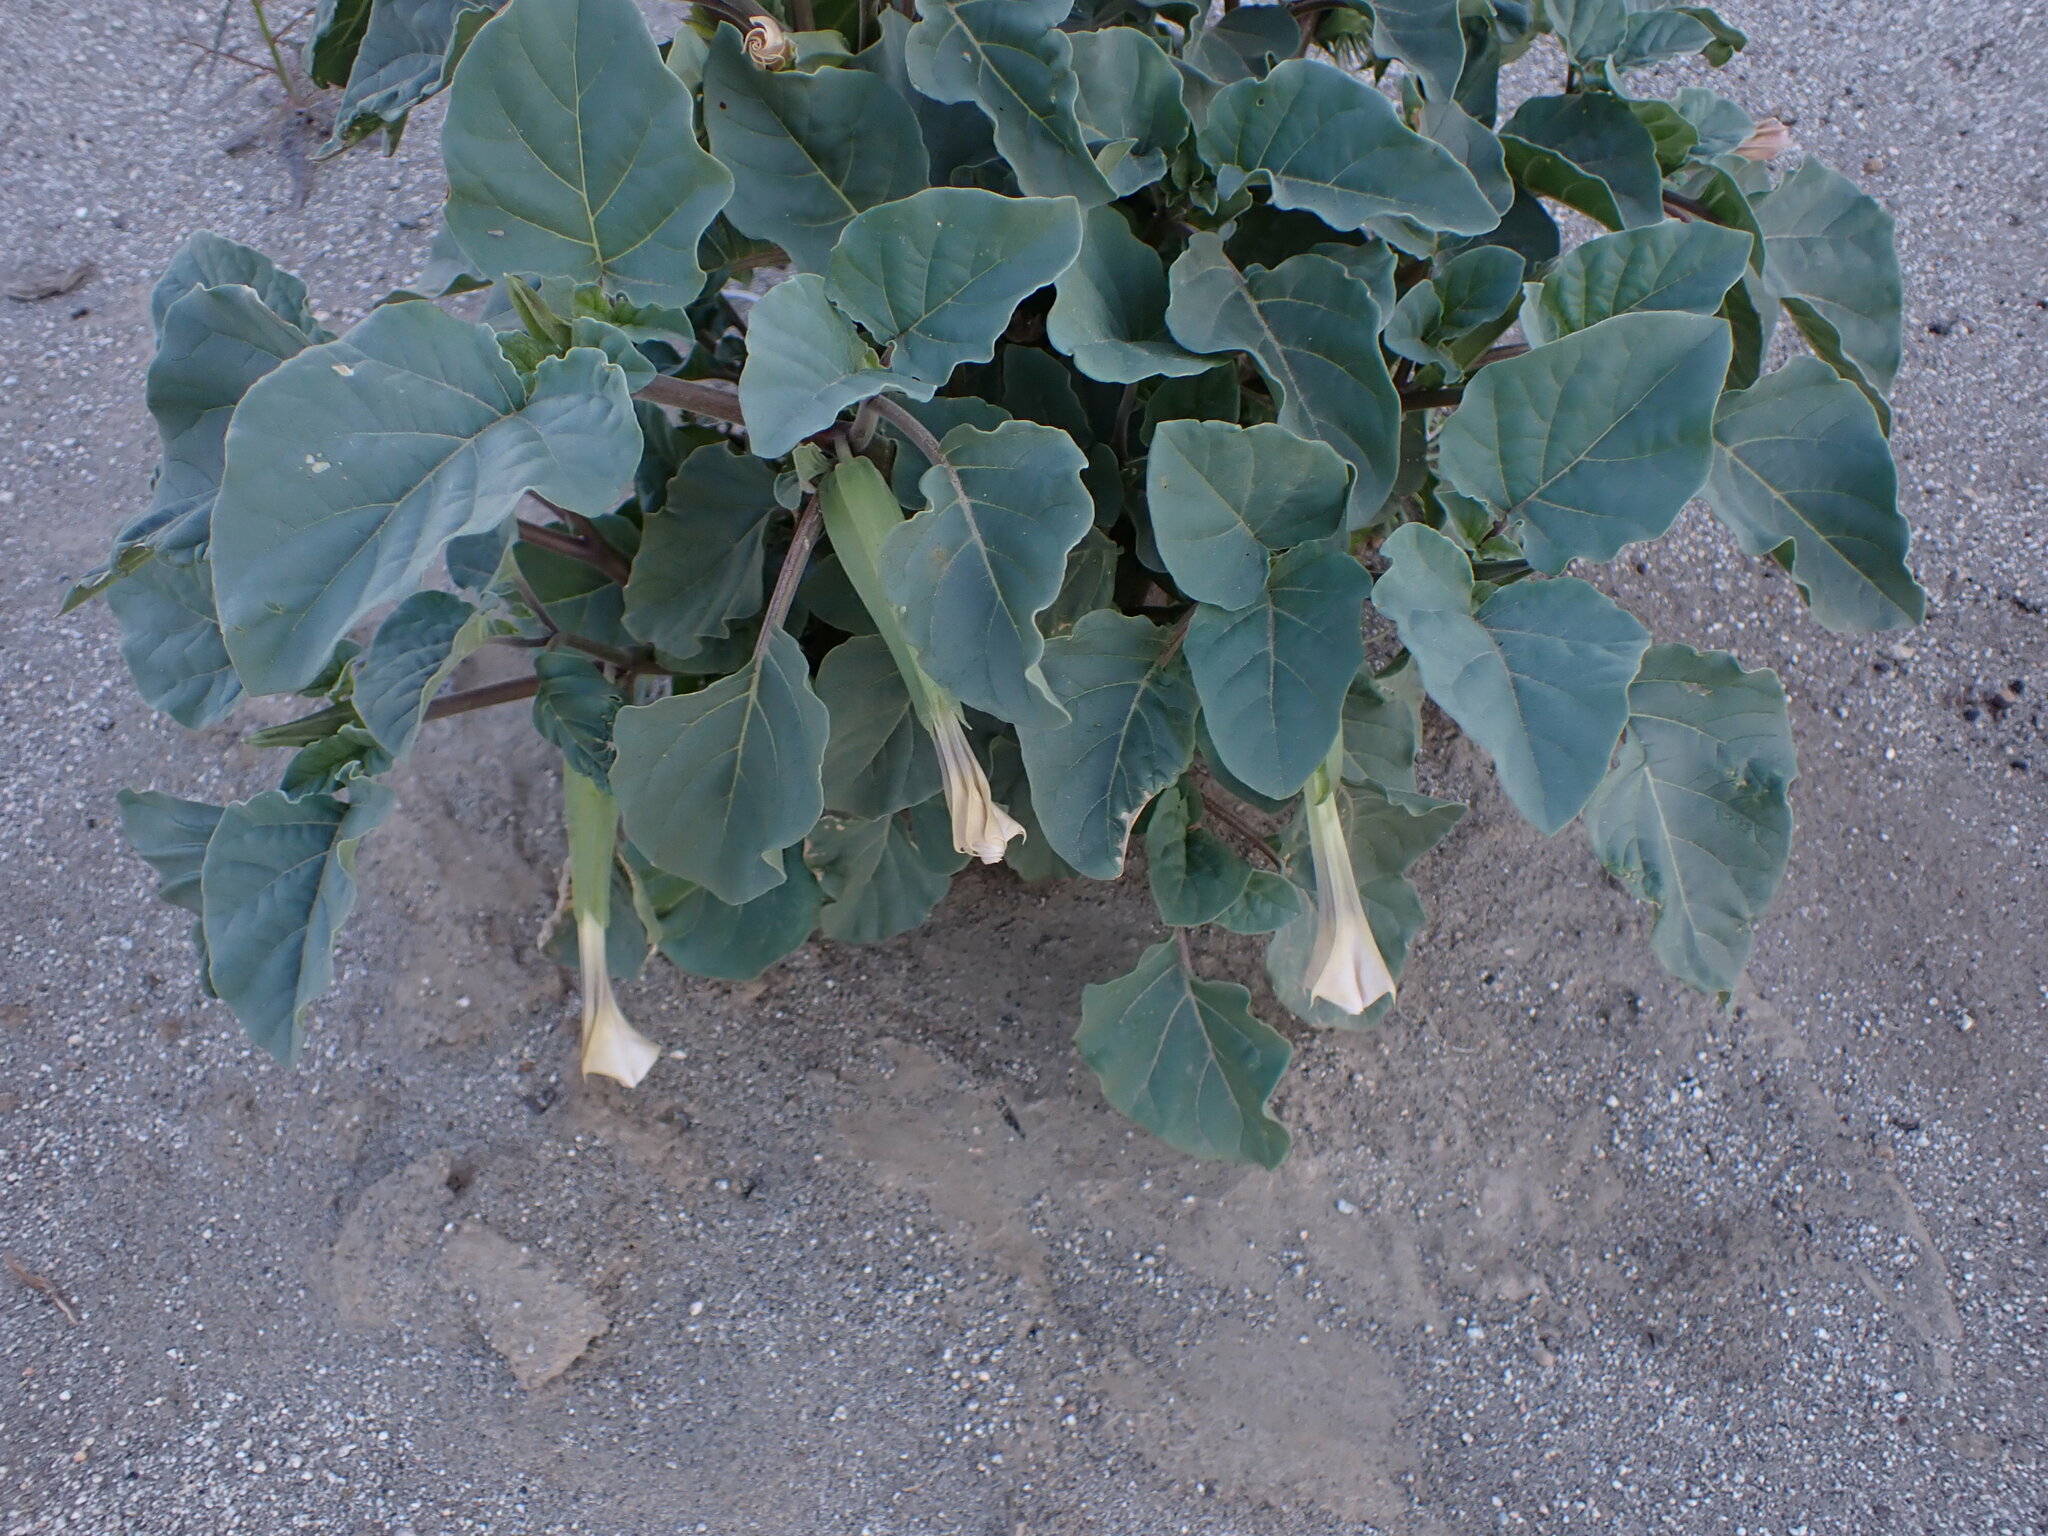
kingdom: Plantae
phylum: Tracheophyta
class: Magnoliopsida
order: Solanales
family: Solanaceae
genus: Datura
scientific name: Datura discolor
